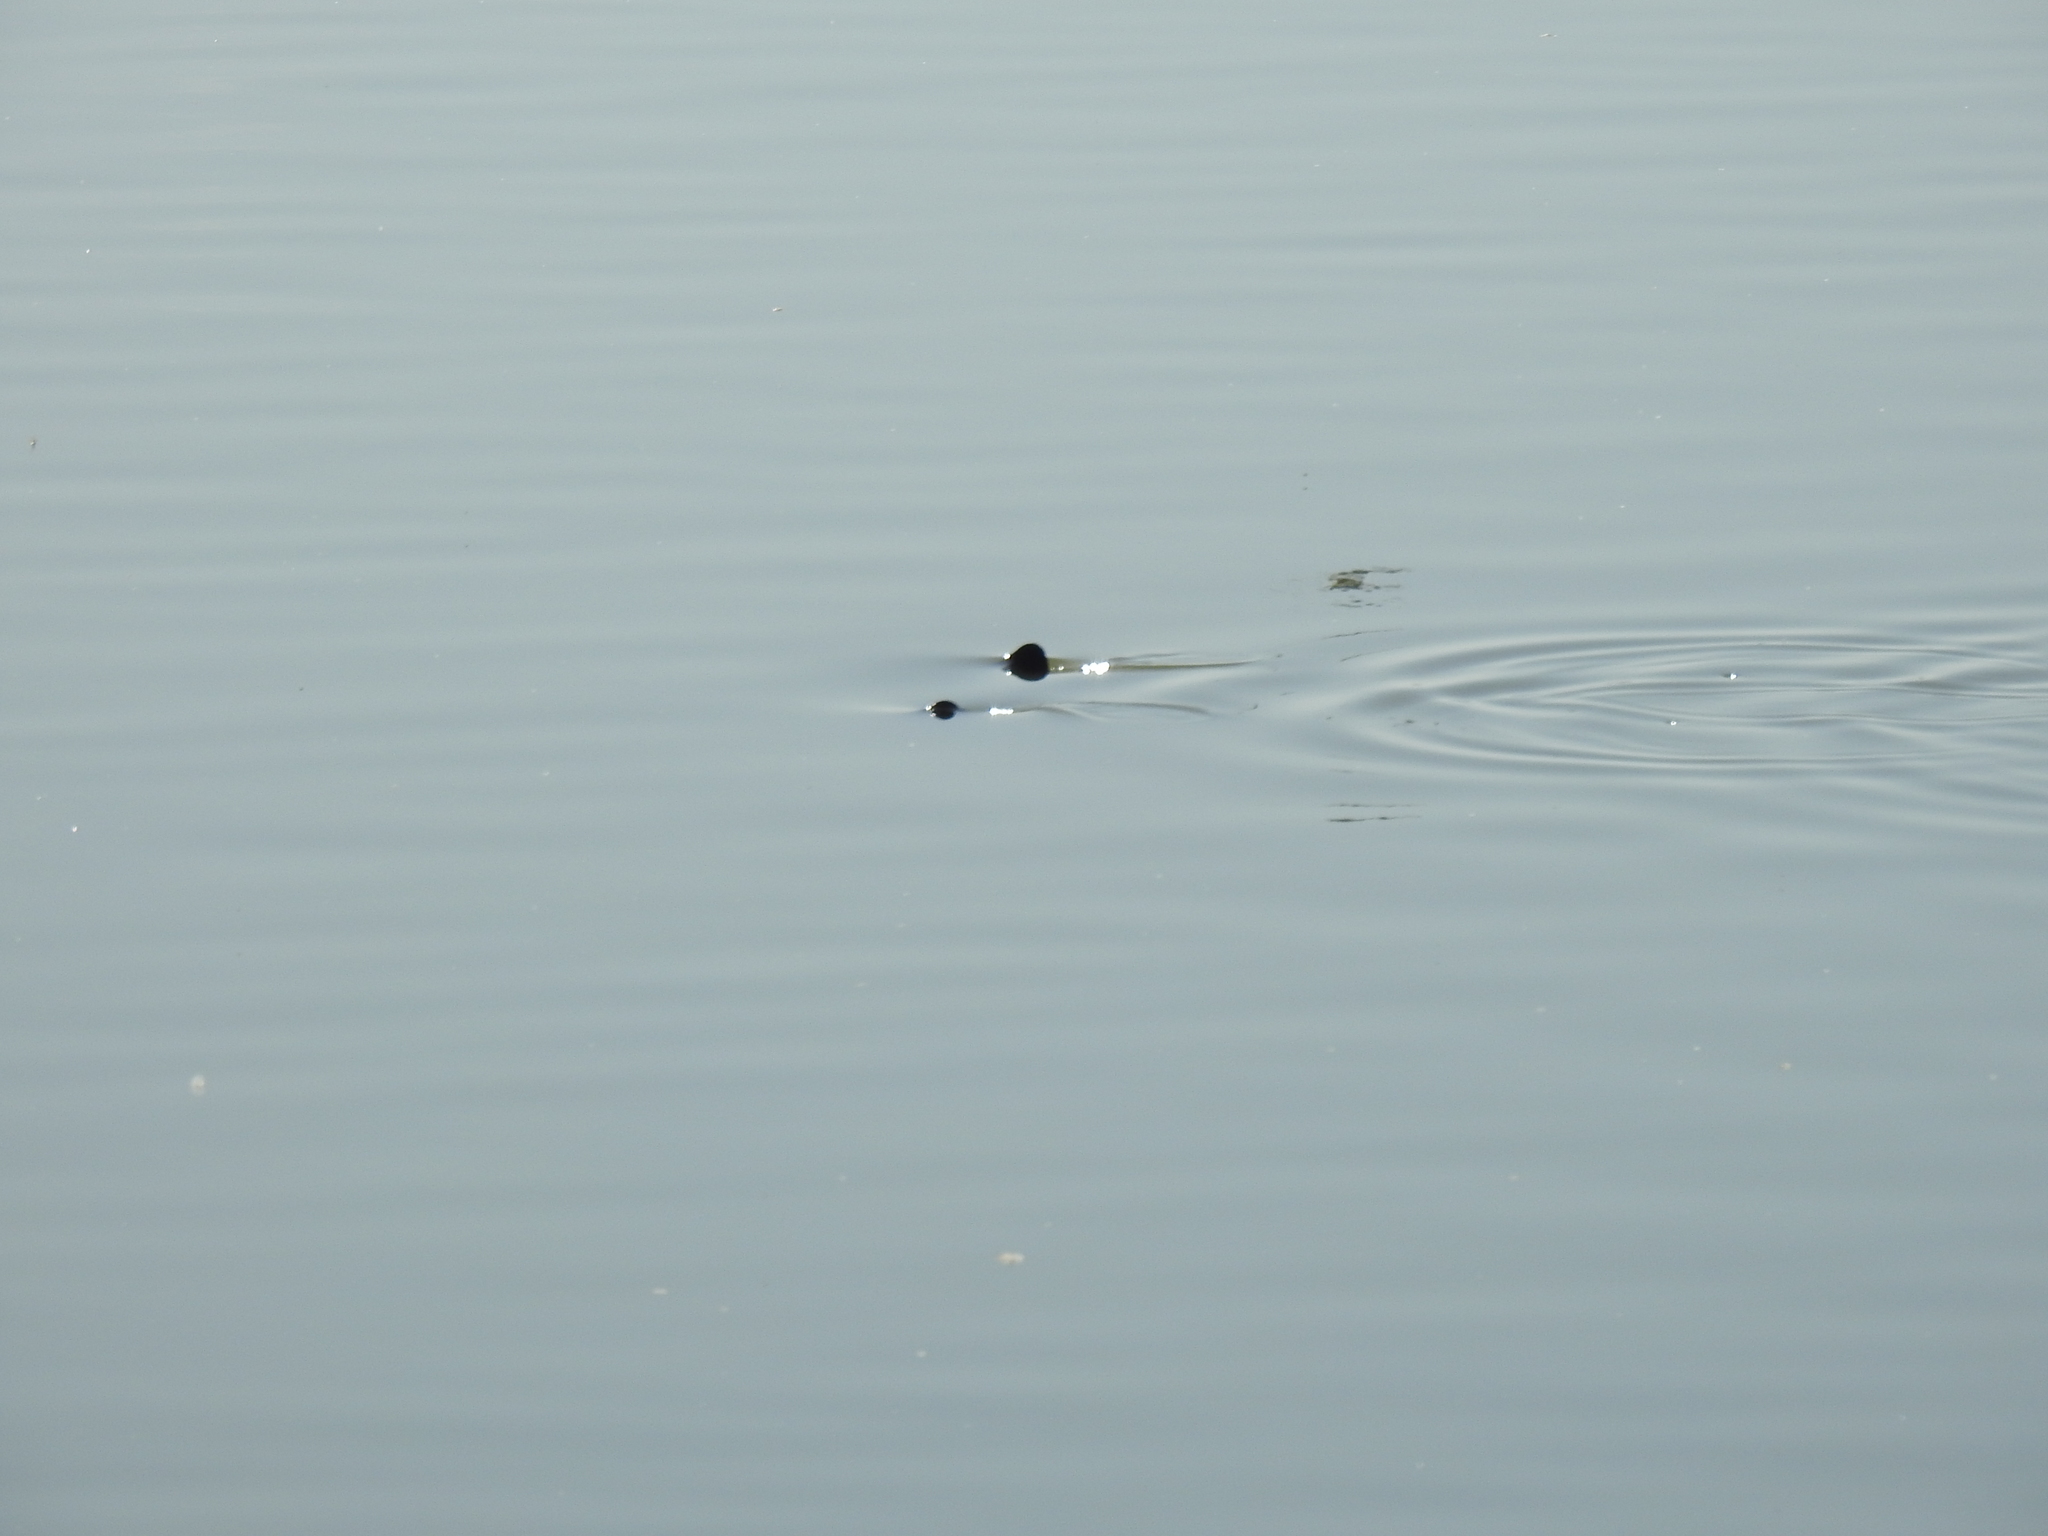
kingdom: Animalia
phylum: Chordata
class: Elasmobranchii
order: Myliobatiformes
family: Myliobatidae
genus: Myliobatis
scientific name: Myliobatis californica
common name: Bat ray
